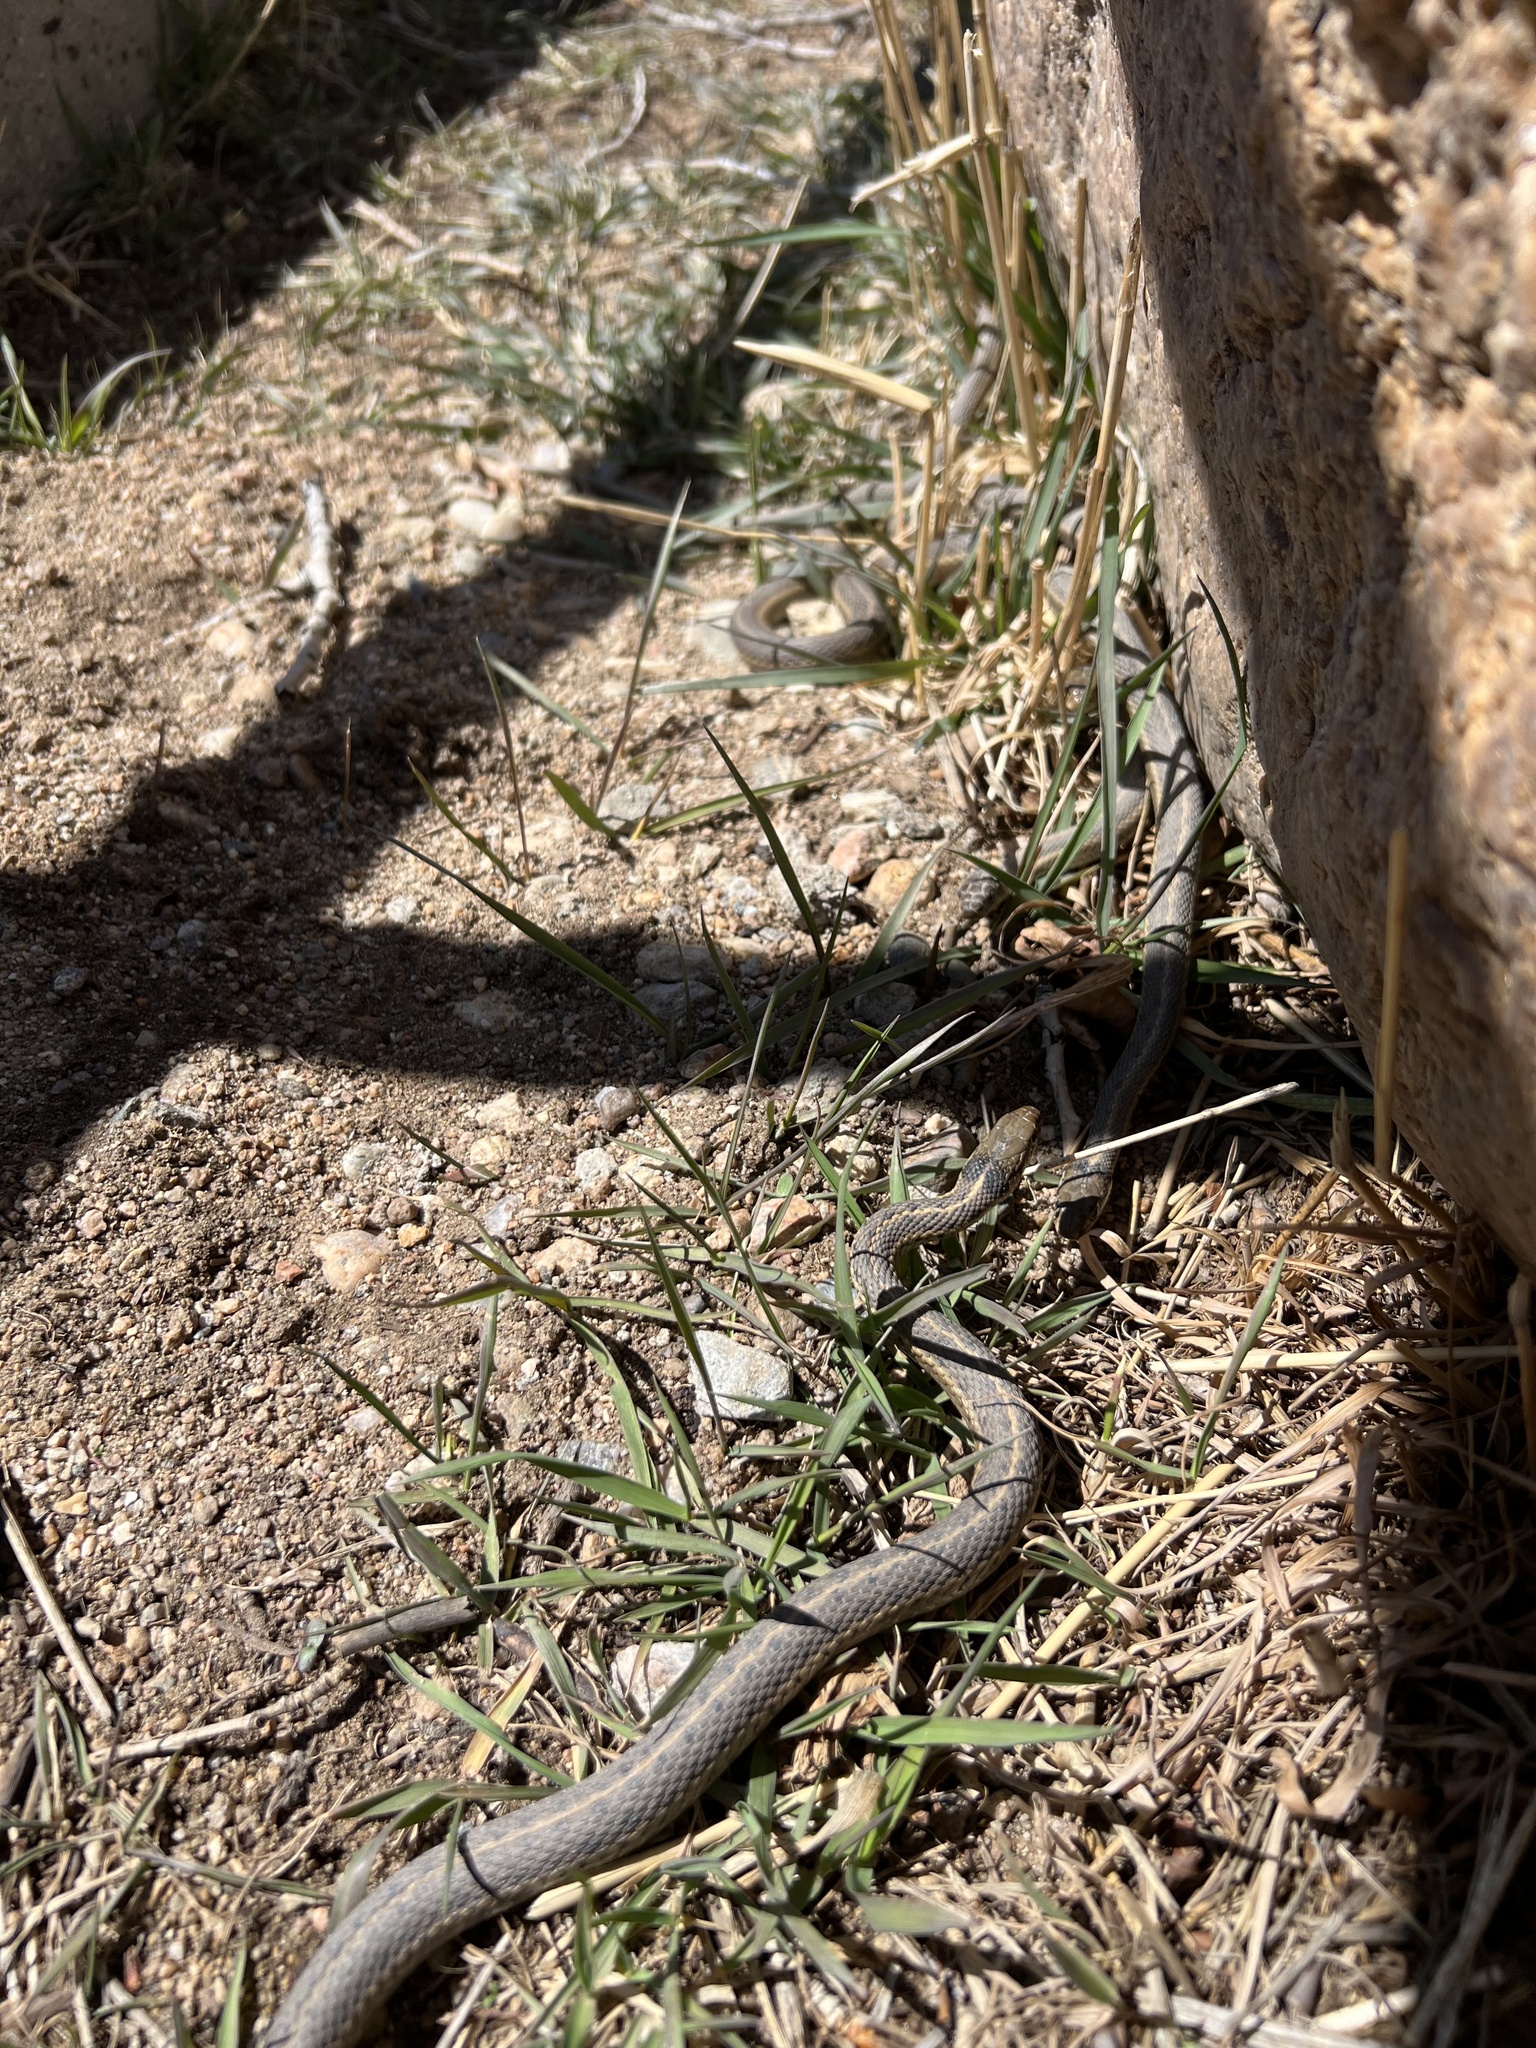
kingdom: Animalia
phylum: Chordata
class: Squamata
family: Colubridae
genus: Thamnophis
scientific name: Thamnophis elegans
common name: Western terrestrial garter snake
